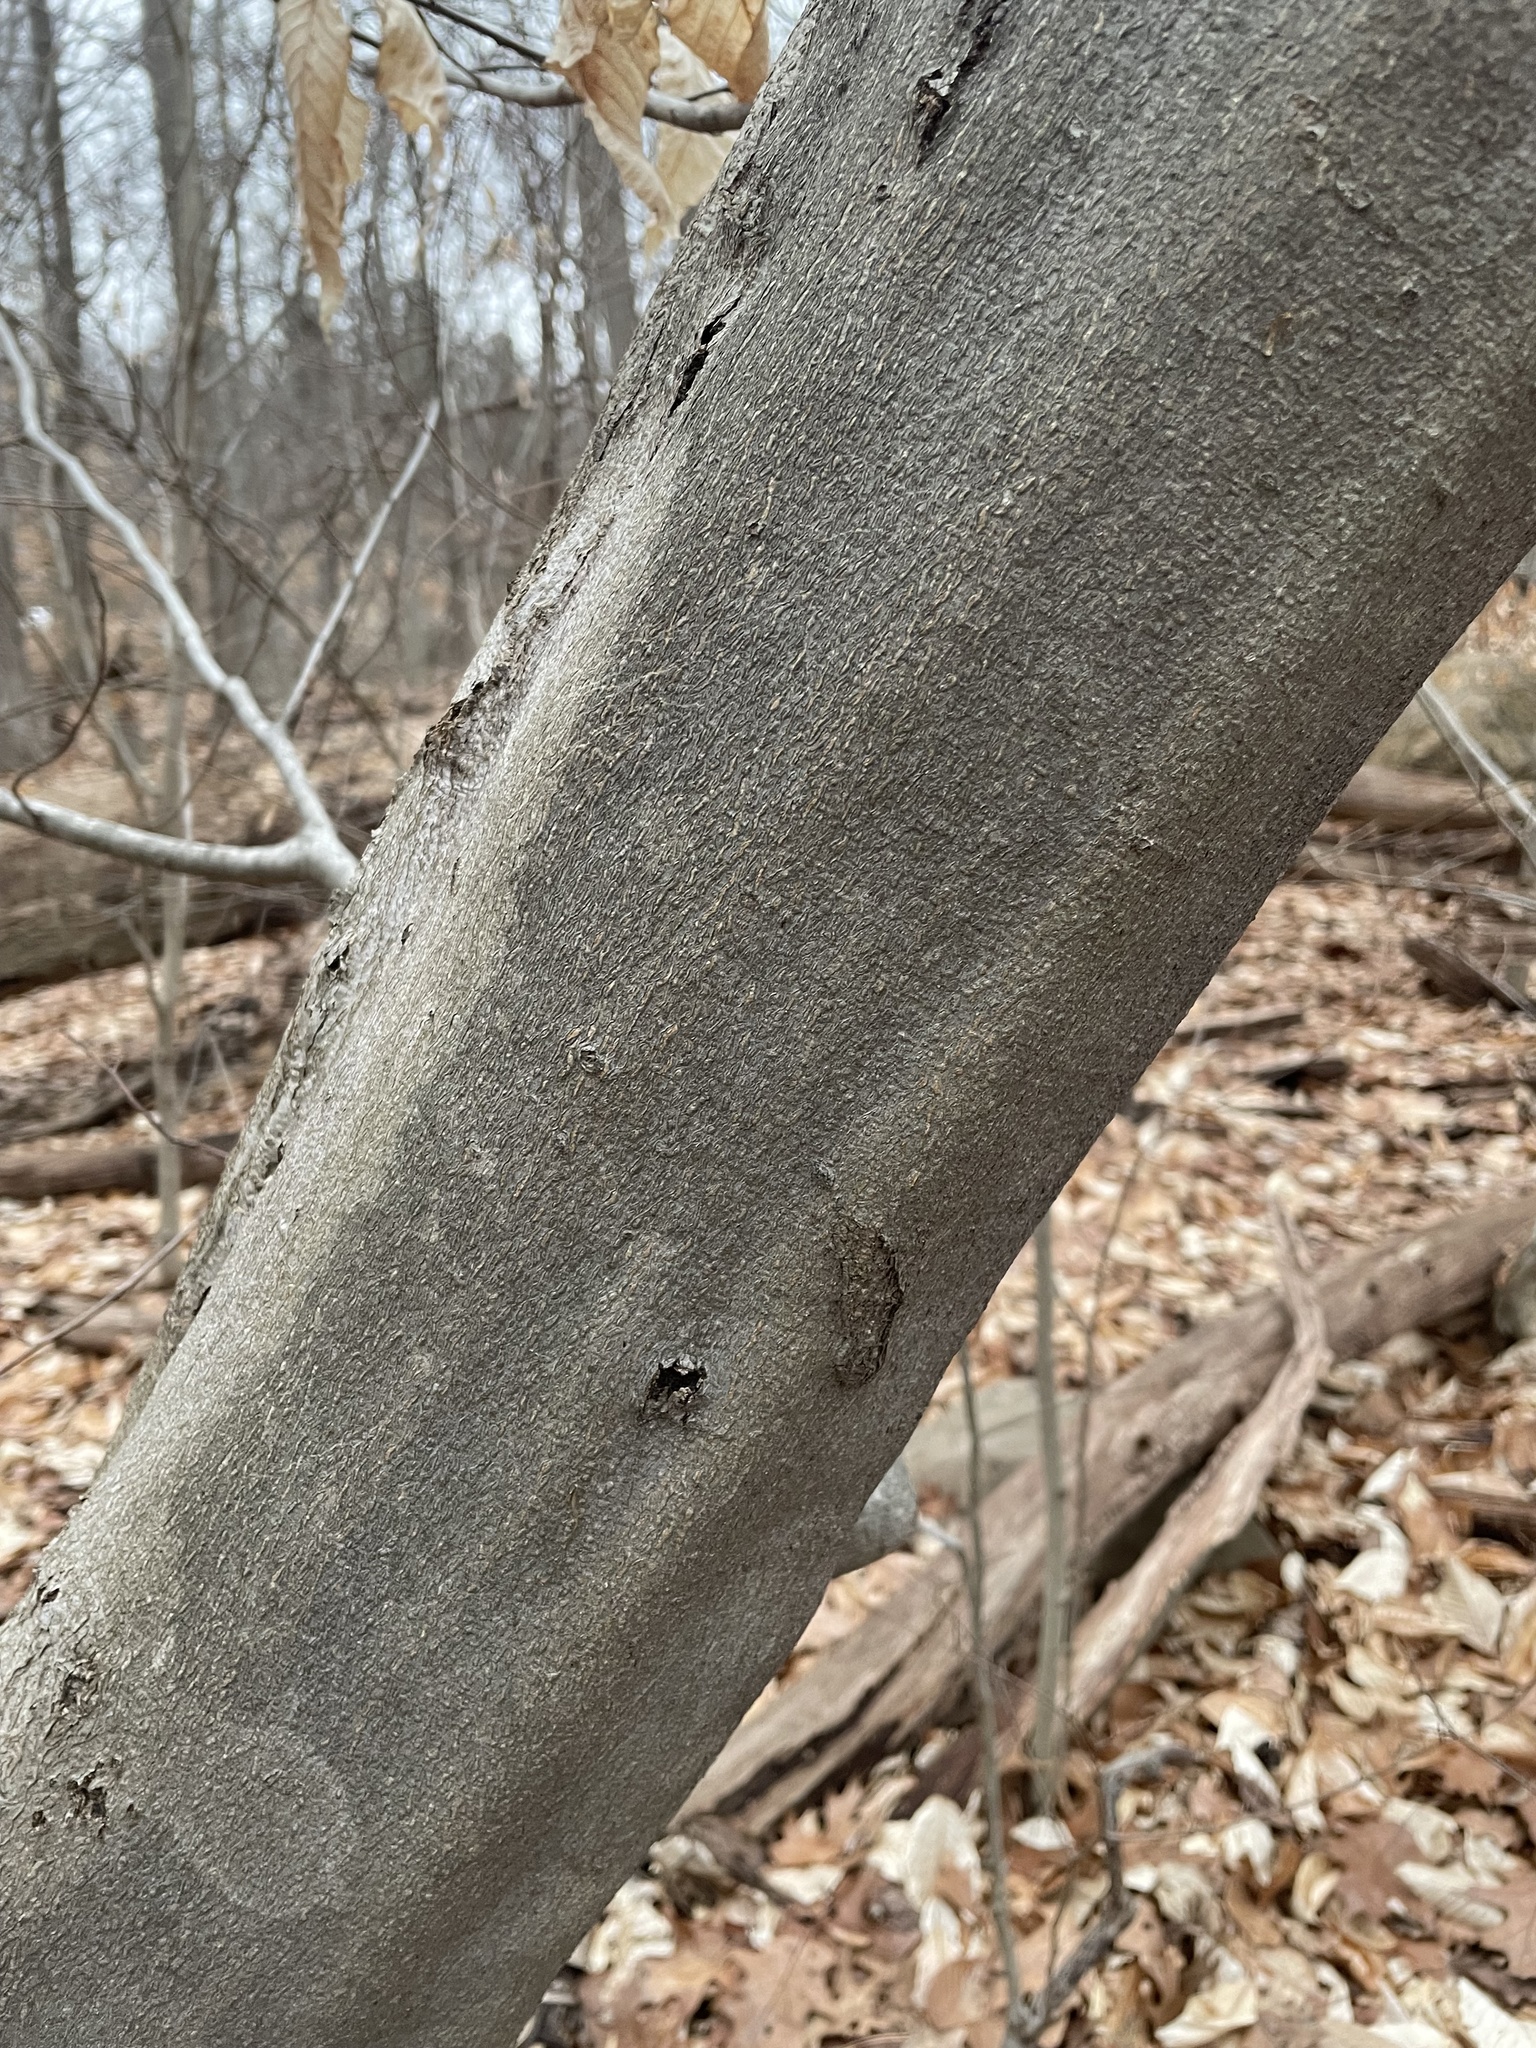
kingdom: Plantae
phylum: Tracheophyta
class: Magnoliopsida
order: Fagales
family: Fagaceae
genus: Fagus
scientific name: Fagus grandifolia
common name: American beech
